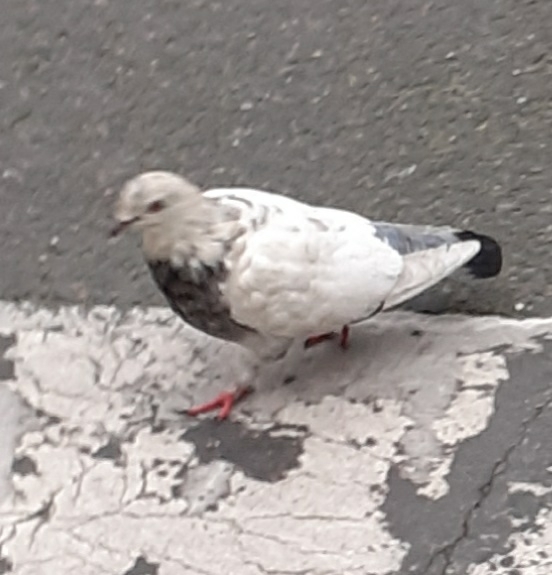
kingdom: Animalia
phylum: Chordata
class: Aves
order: Columbiformes
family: Columbidae
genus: Columba
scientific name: Columba livia
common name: Rock pigeon
